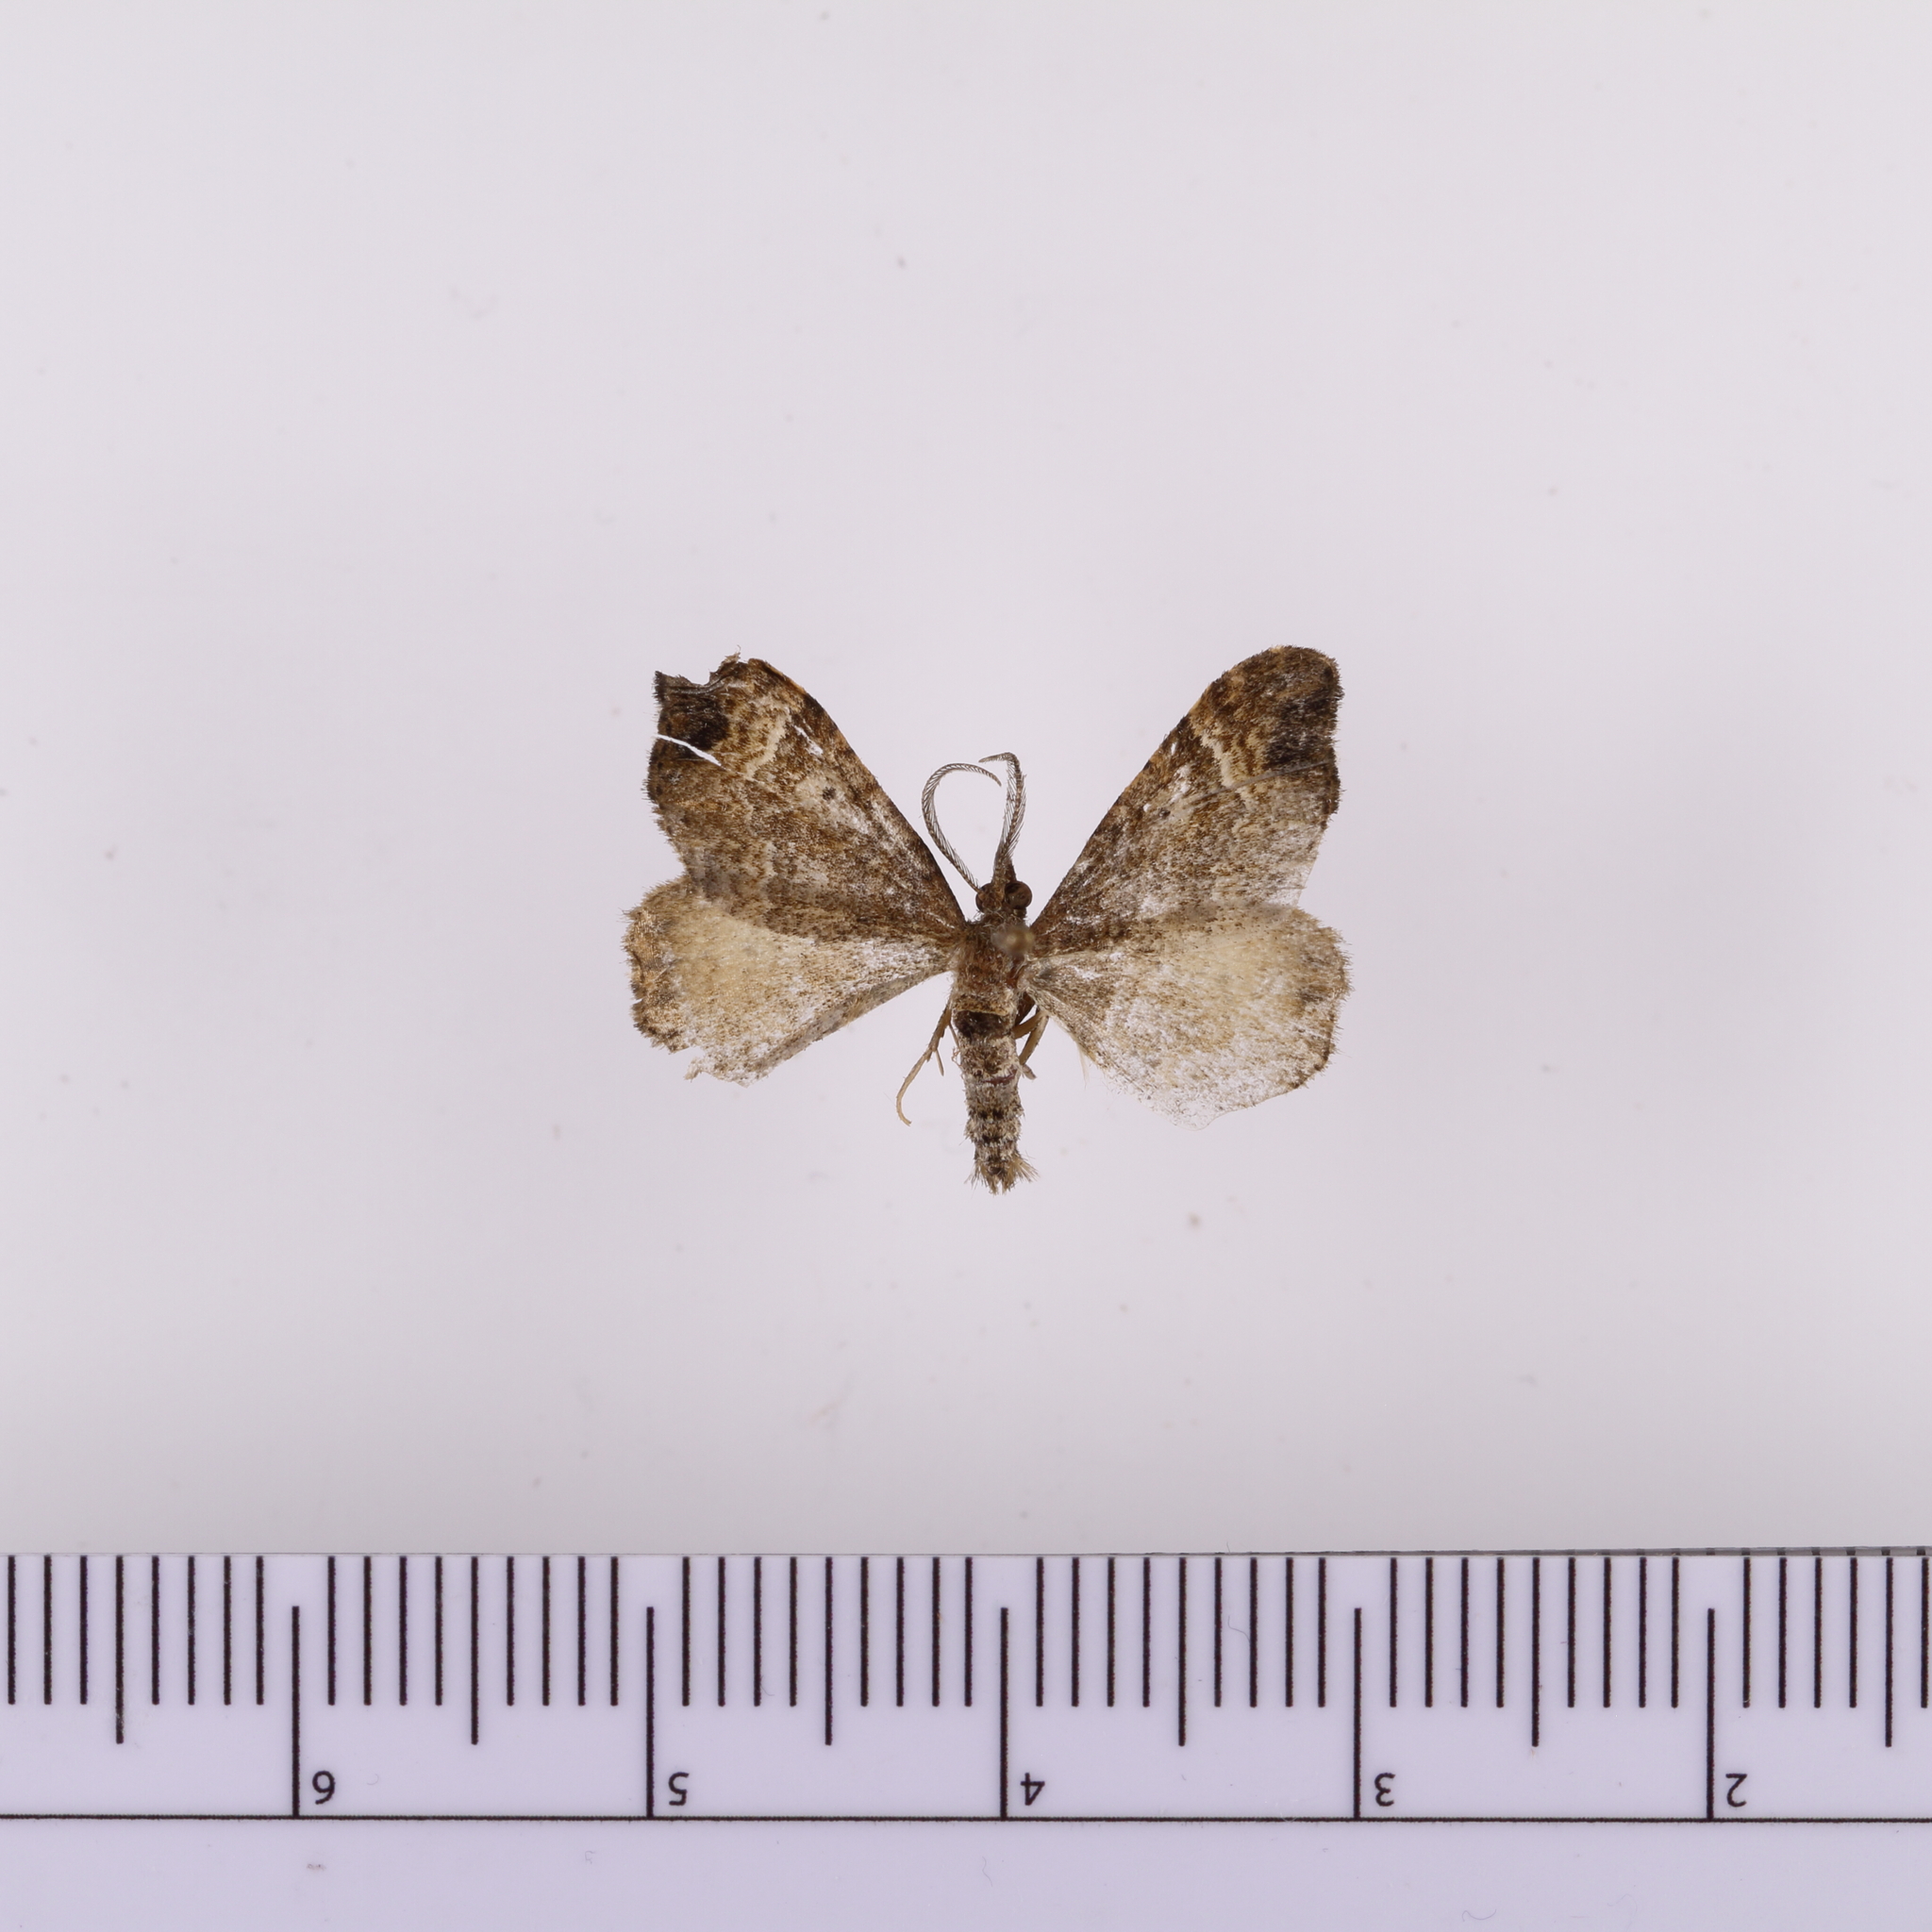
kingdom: Animalia
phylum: Arthropoda
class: Insecta
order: Lepidoptera
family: Geometridae
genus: Homodotis
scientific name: Homodotis megaspilata
